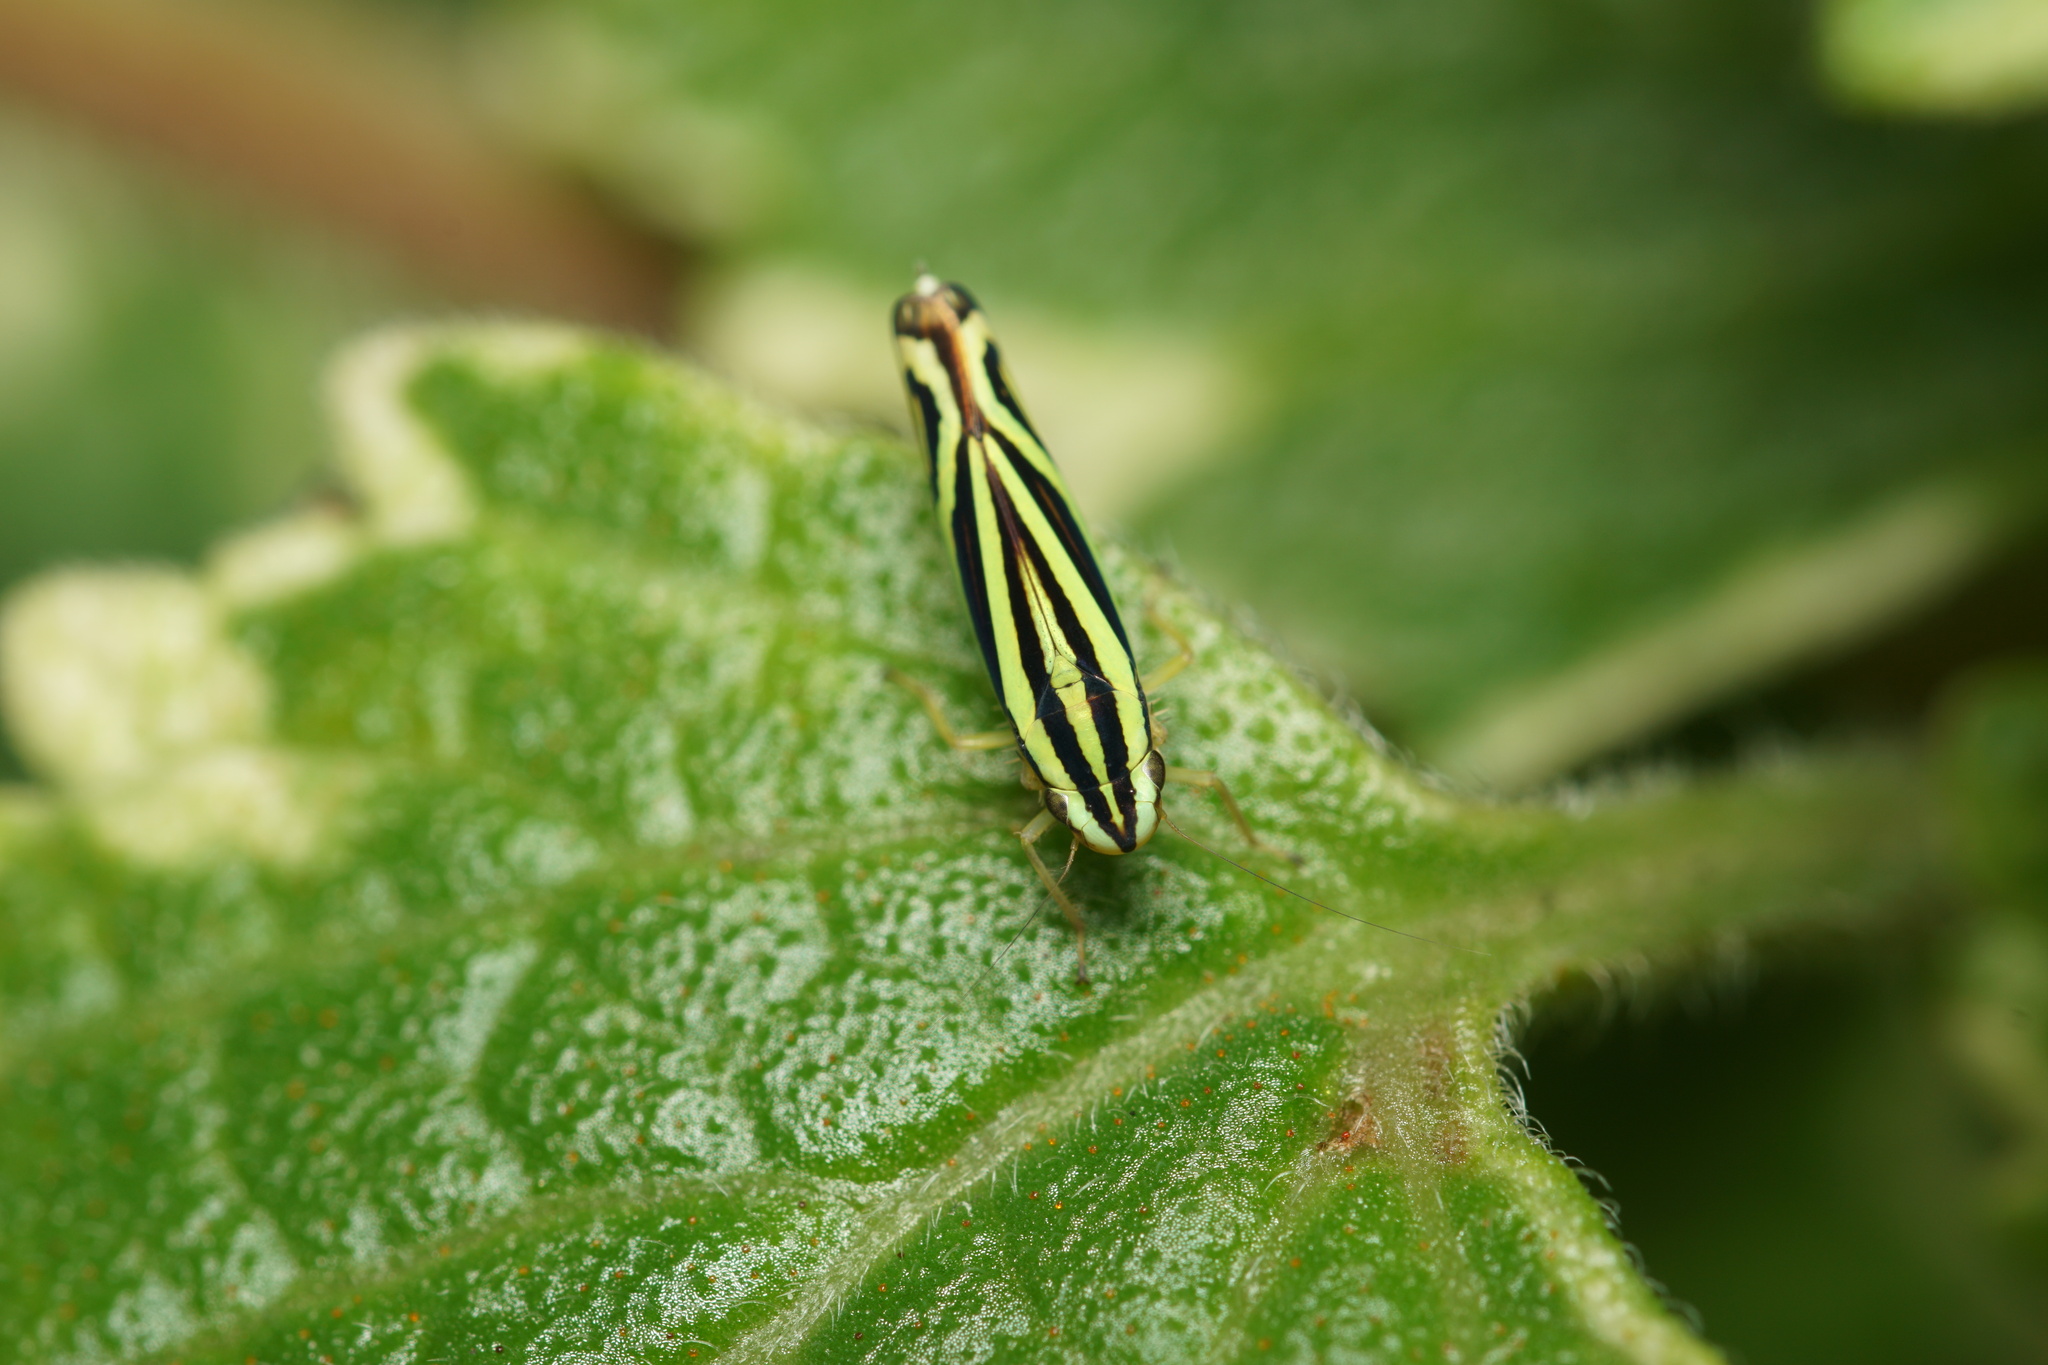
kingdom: Animalia
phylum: Arthropoda
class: Insecta
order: Hemiptera
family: Cicadellidae
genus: Sibovia
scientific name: Sibovia sagata
